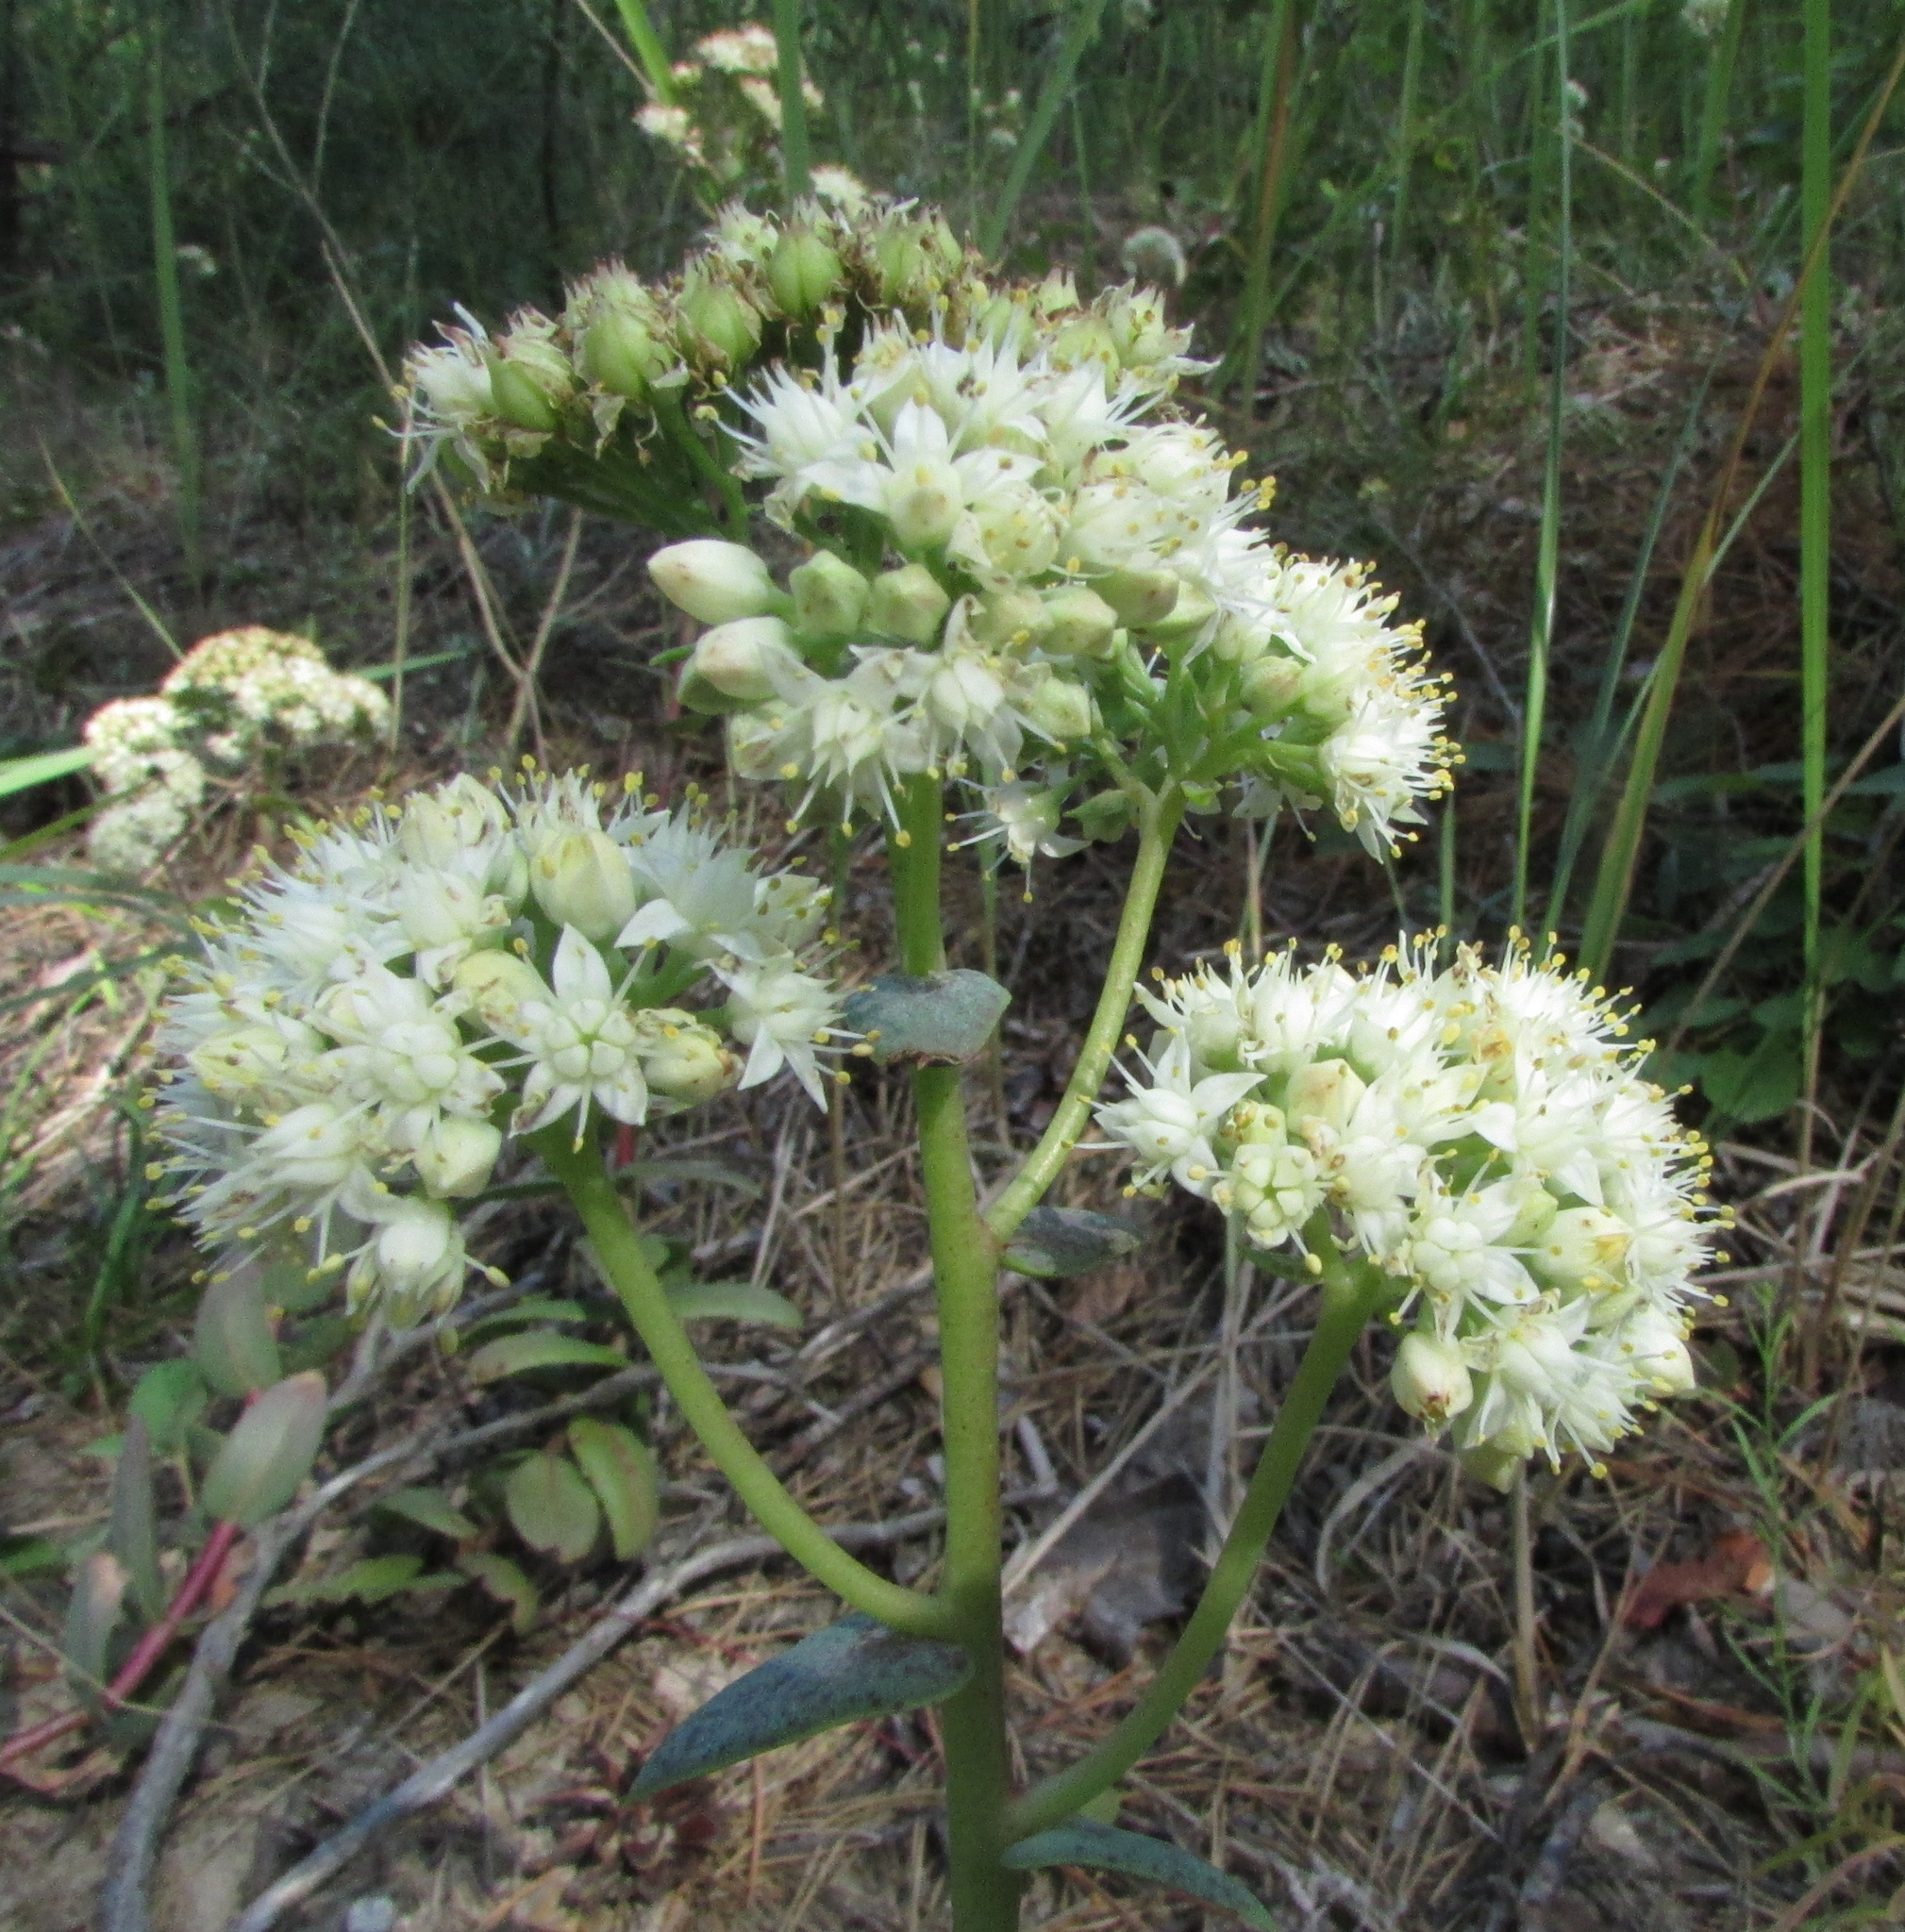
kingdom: Plantae
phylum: Tracheophyta
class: Magnoliopsida
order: Saxifragales
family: Crassulaceae
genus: Hylotelephium
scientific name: Hylotelephium maximum
